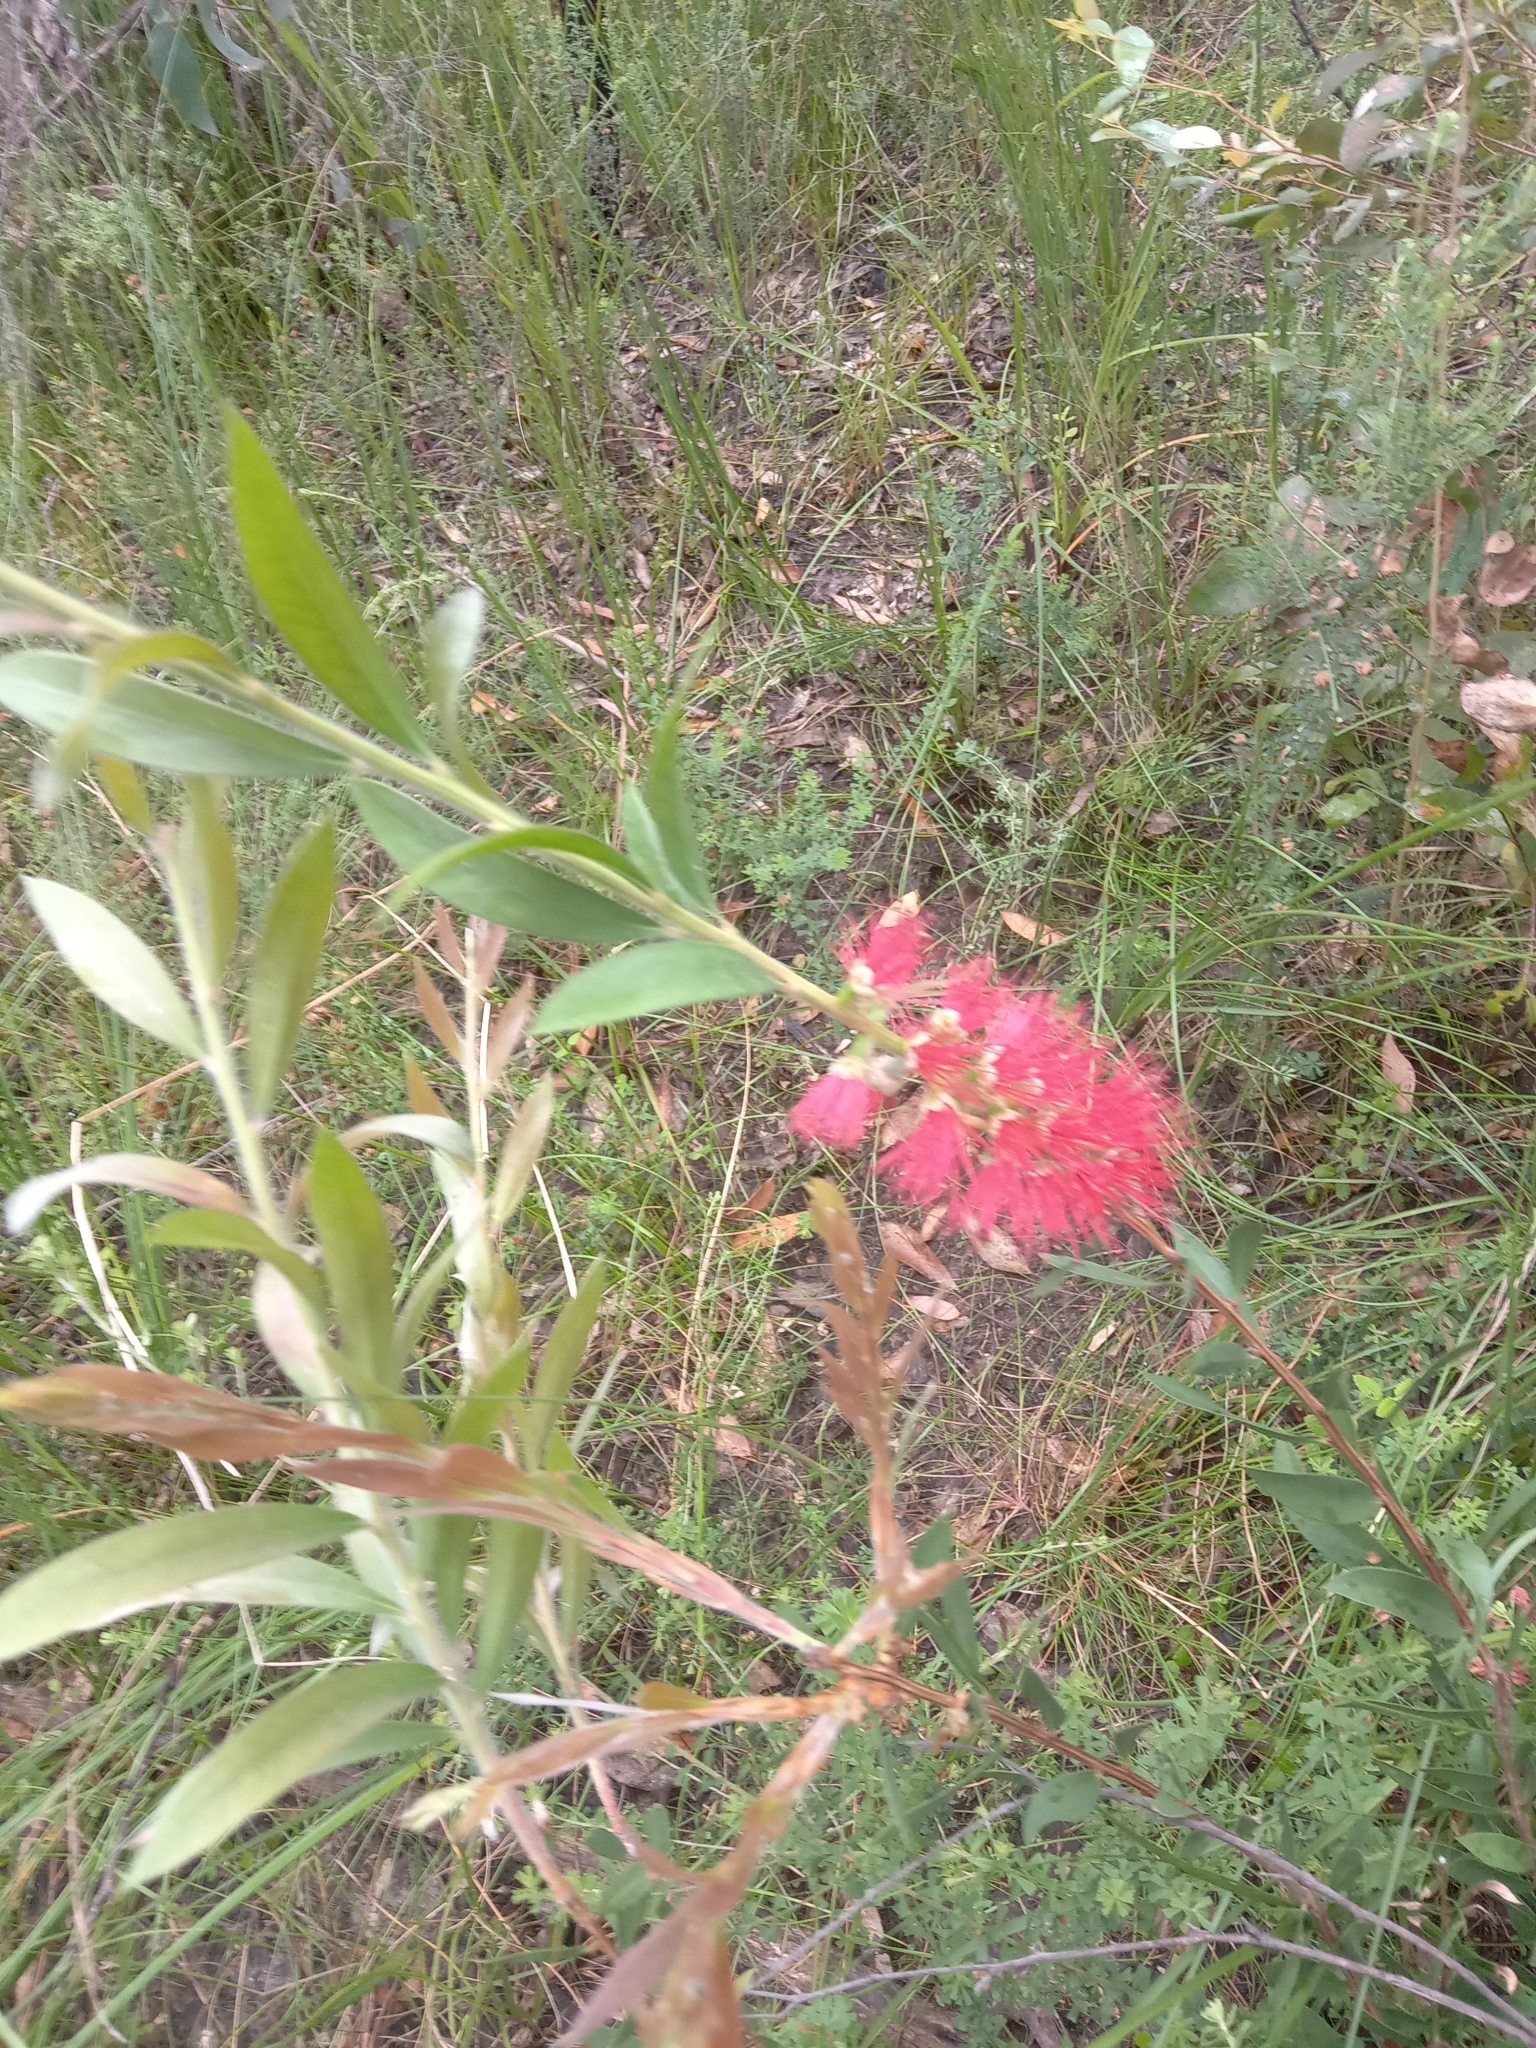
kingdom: Plantae
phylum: Tracheophyta
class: Magnoliopsida
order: Myrtales
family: Myrtaceae
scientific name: Myrtaceae
